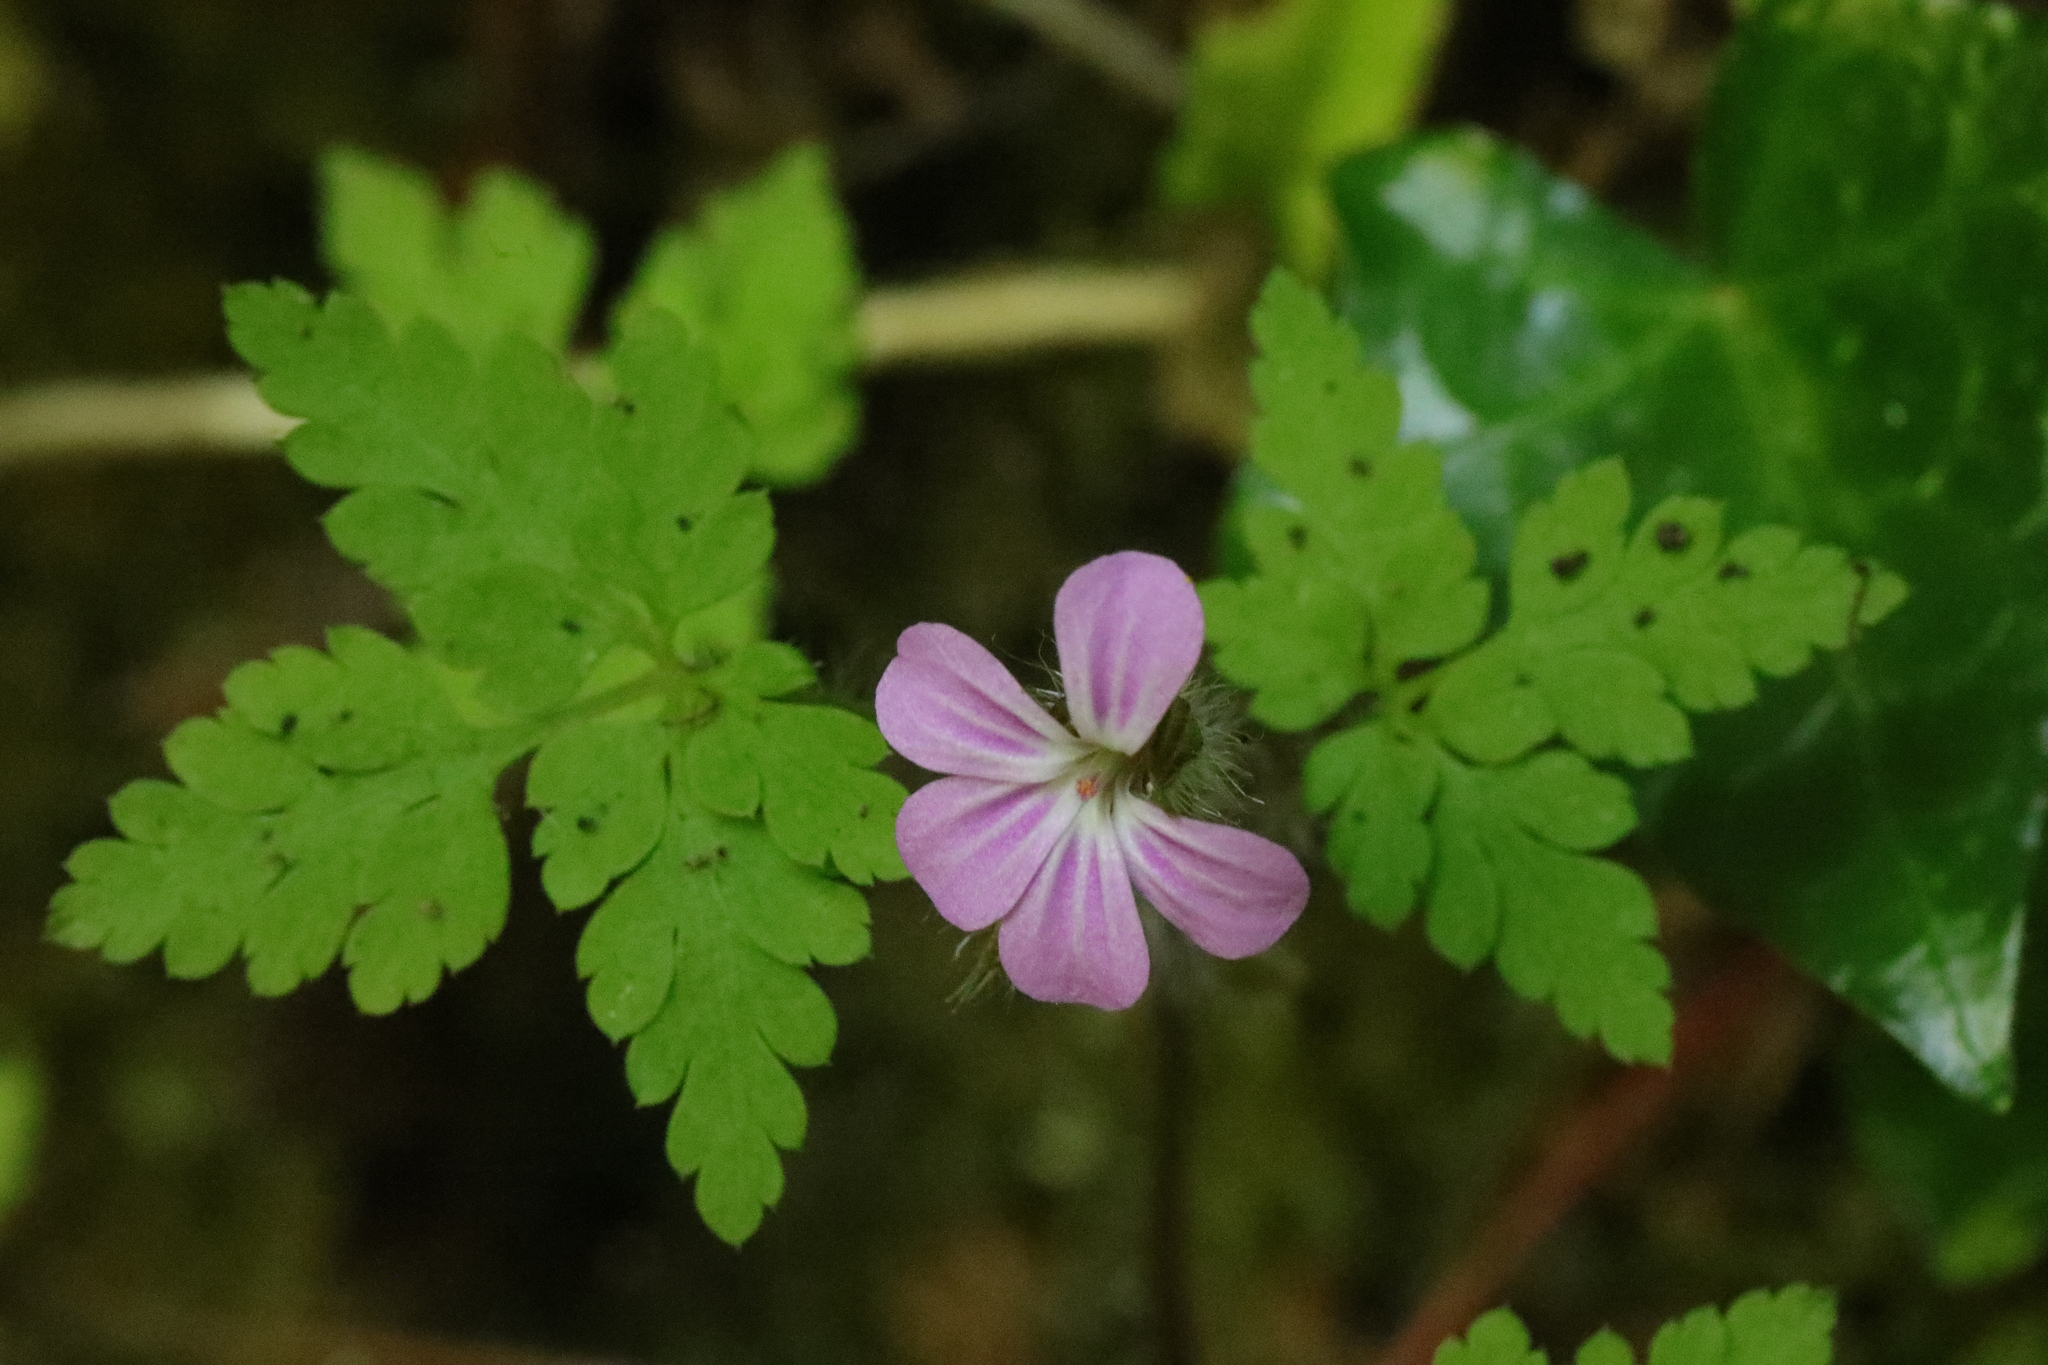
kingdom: Plantae
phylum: Tracheophyta
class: Magnoliopsida
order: Geraniales
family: Geraniaceae
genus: Geranium
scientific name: Geranium robertianum
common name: Herb-robert
